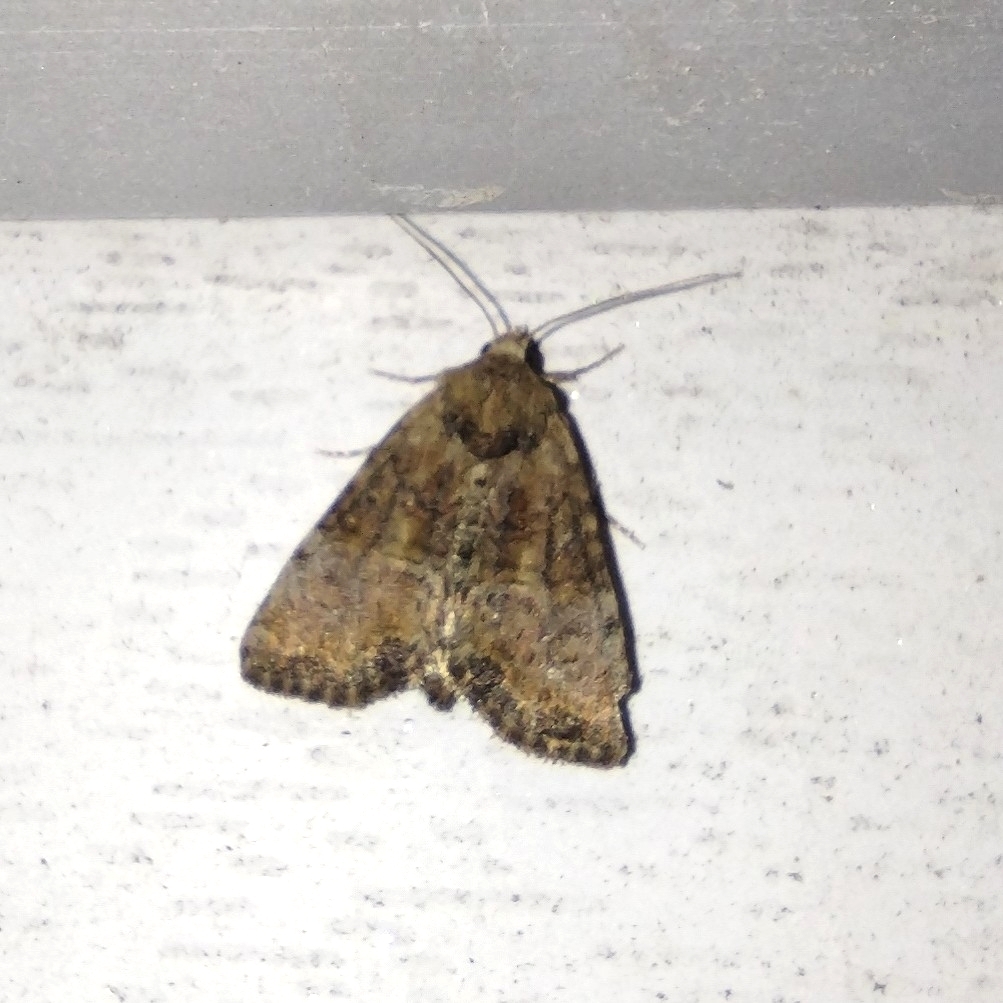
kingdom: Animalia
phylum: Arthropoda
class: Insecta
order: Lepidoptera
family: Noctuidae
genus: Mesoligia
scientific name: Mesoligia furuncula
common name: Cloaked minor
